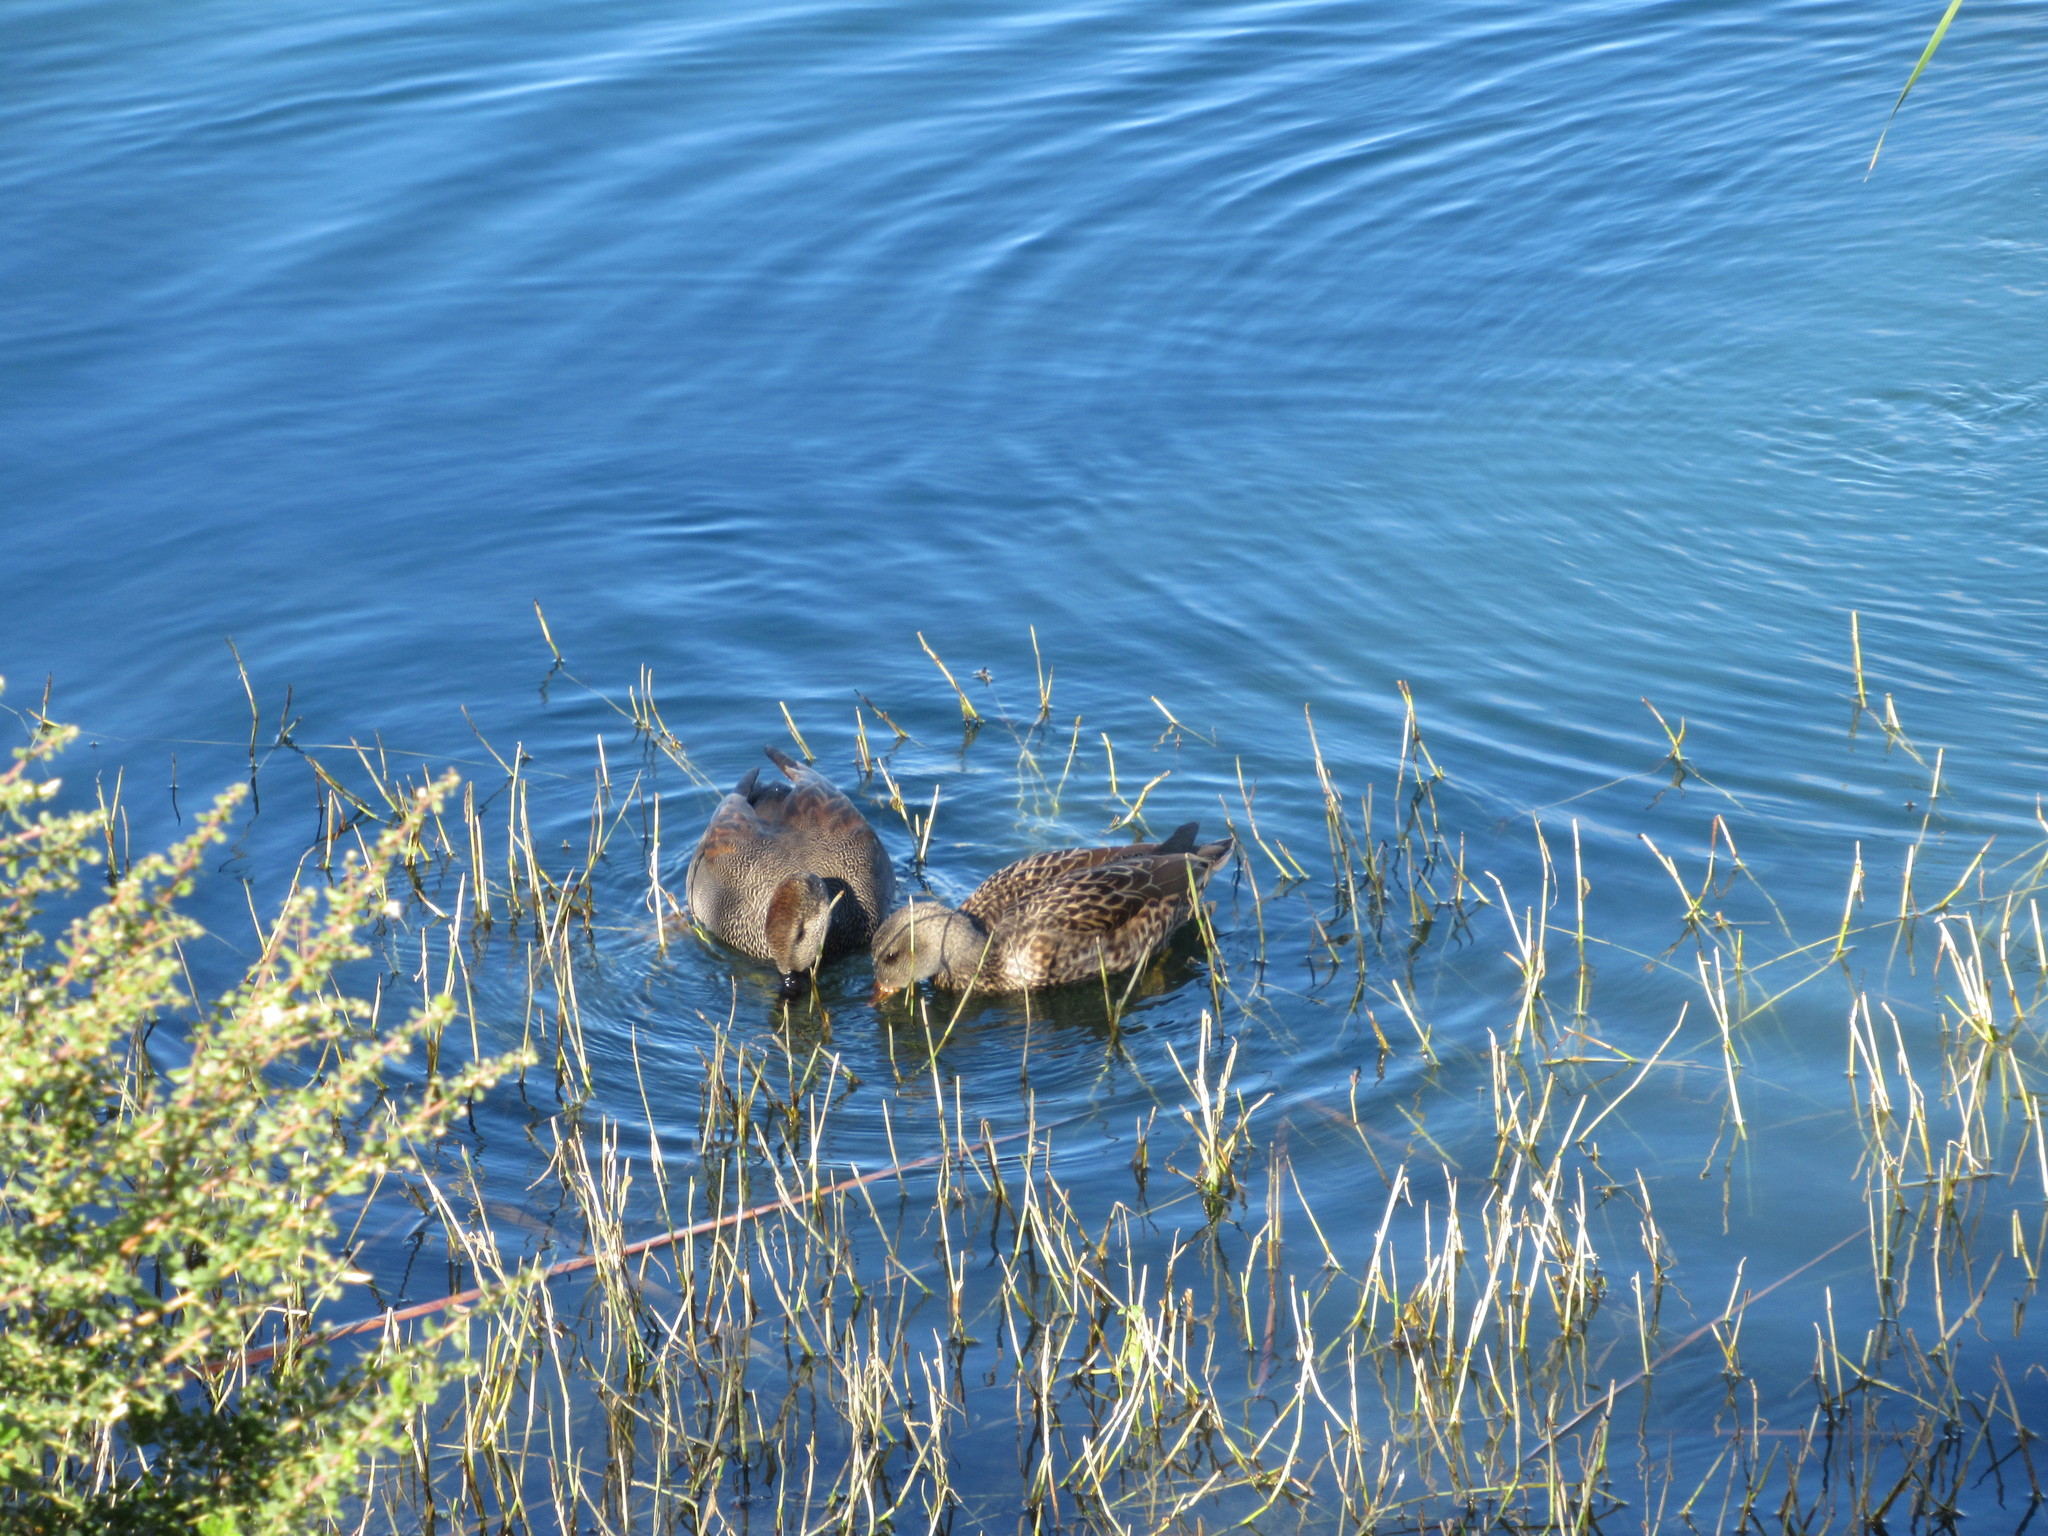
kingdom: Animalia
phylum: Chordata
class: Aves
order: Anseriformes
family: Anatidae
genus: Mareca
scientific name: Mareca strepera
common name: Gadwall
